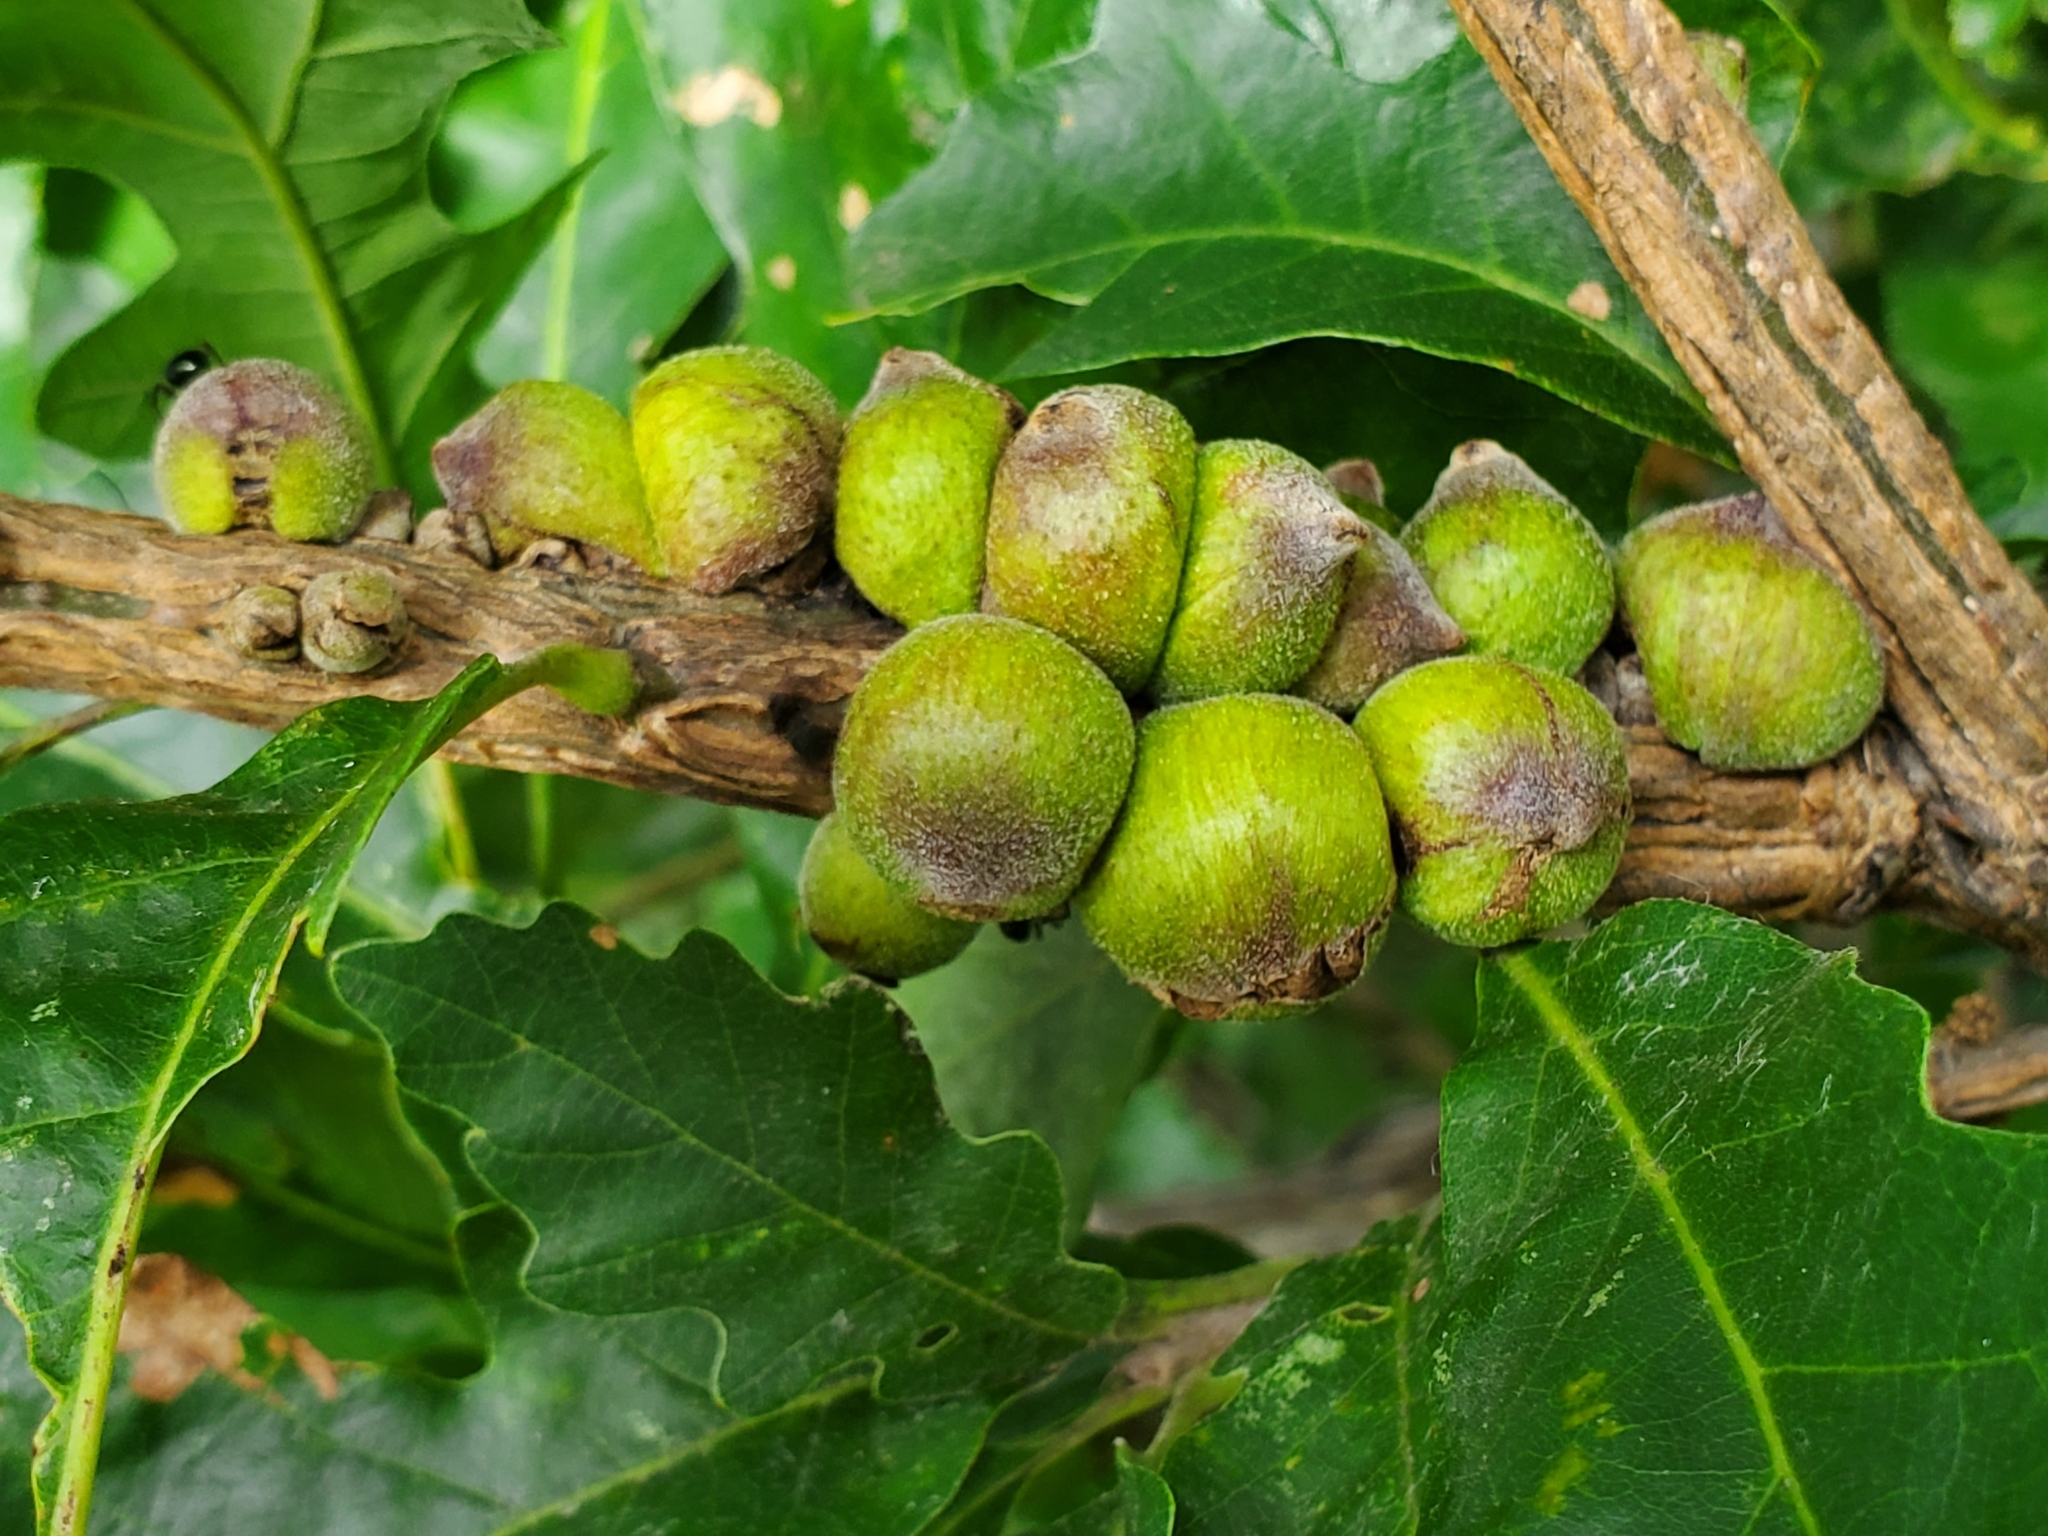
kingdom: Animalia
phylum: Arthropoda
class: Insecta
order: Hymenoptera
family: Cynipidae
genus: Disholcaspis
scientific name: Disholcaspis
